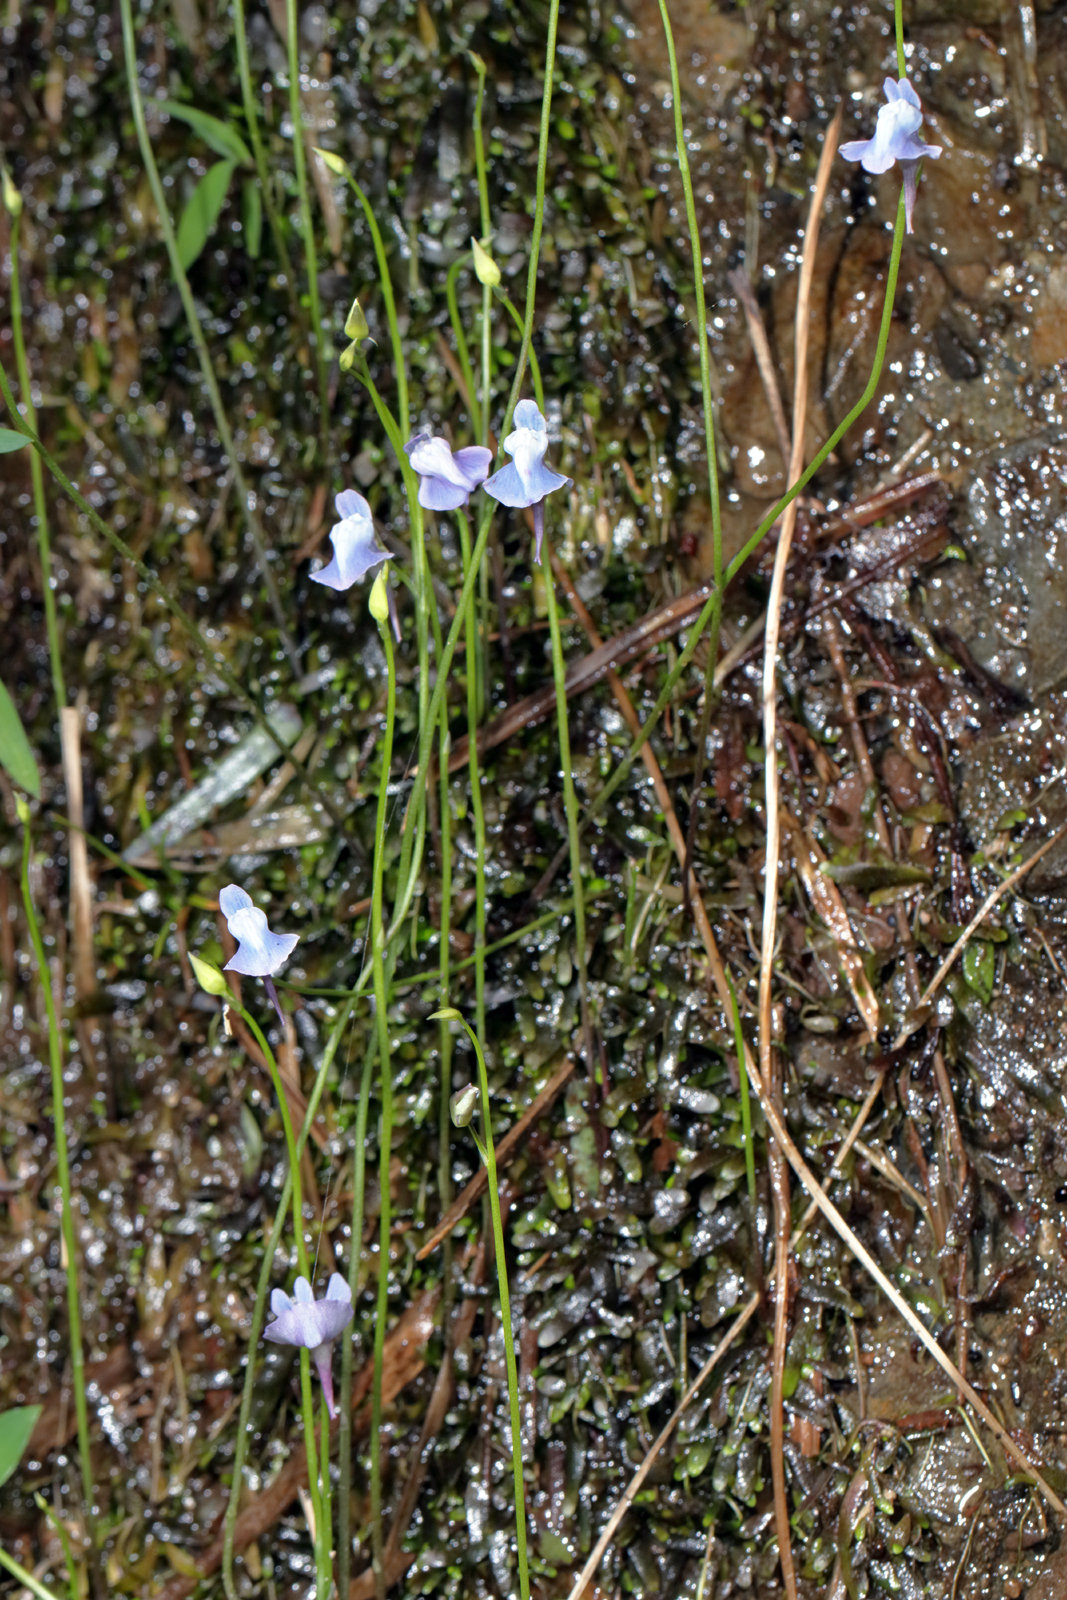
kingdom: Plantae
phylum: Tracheophyta
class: Magnoliopsida
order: Lamiales
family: Lentibulariaceae
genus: Utricularia
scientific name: Utricularia smithiana
